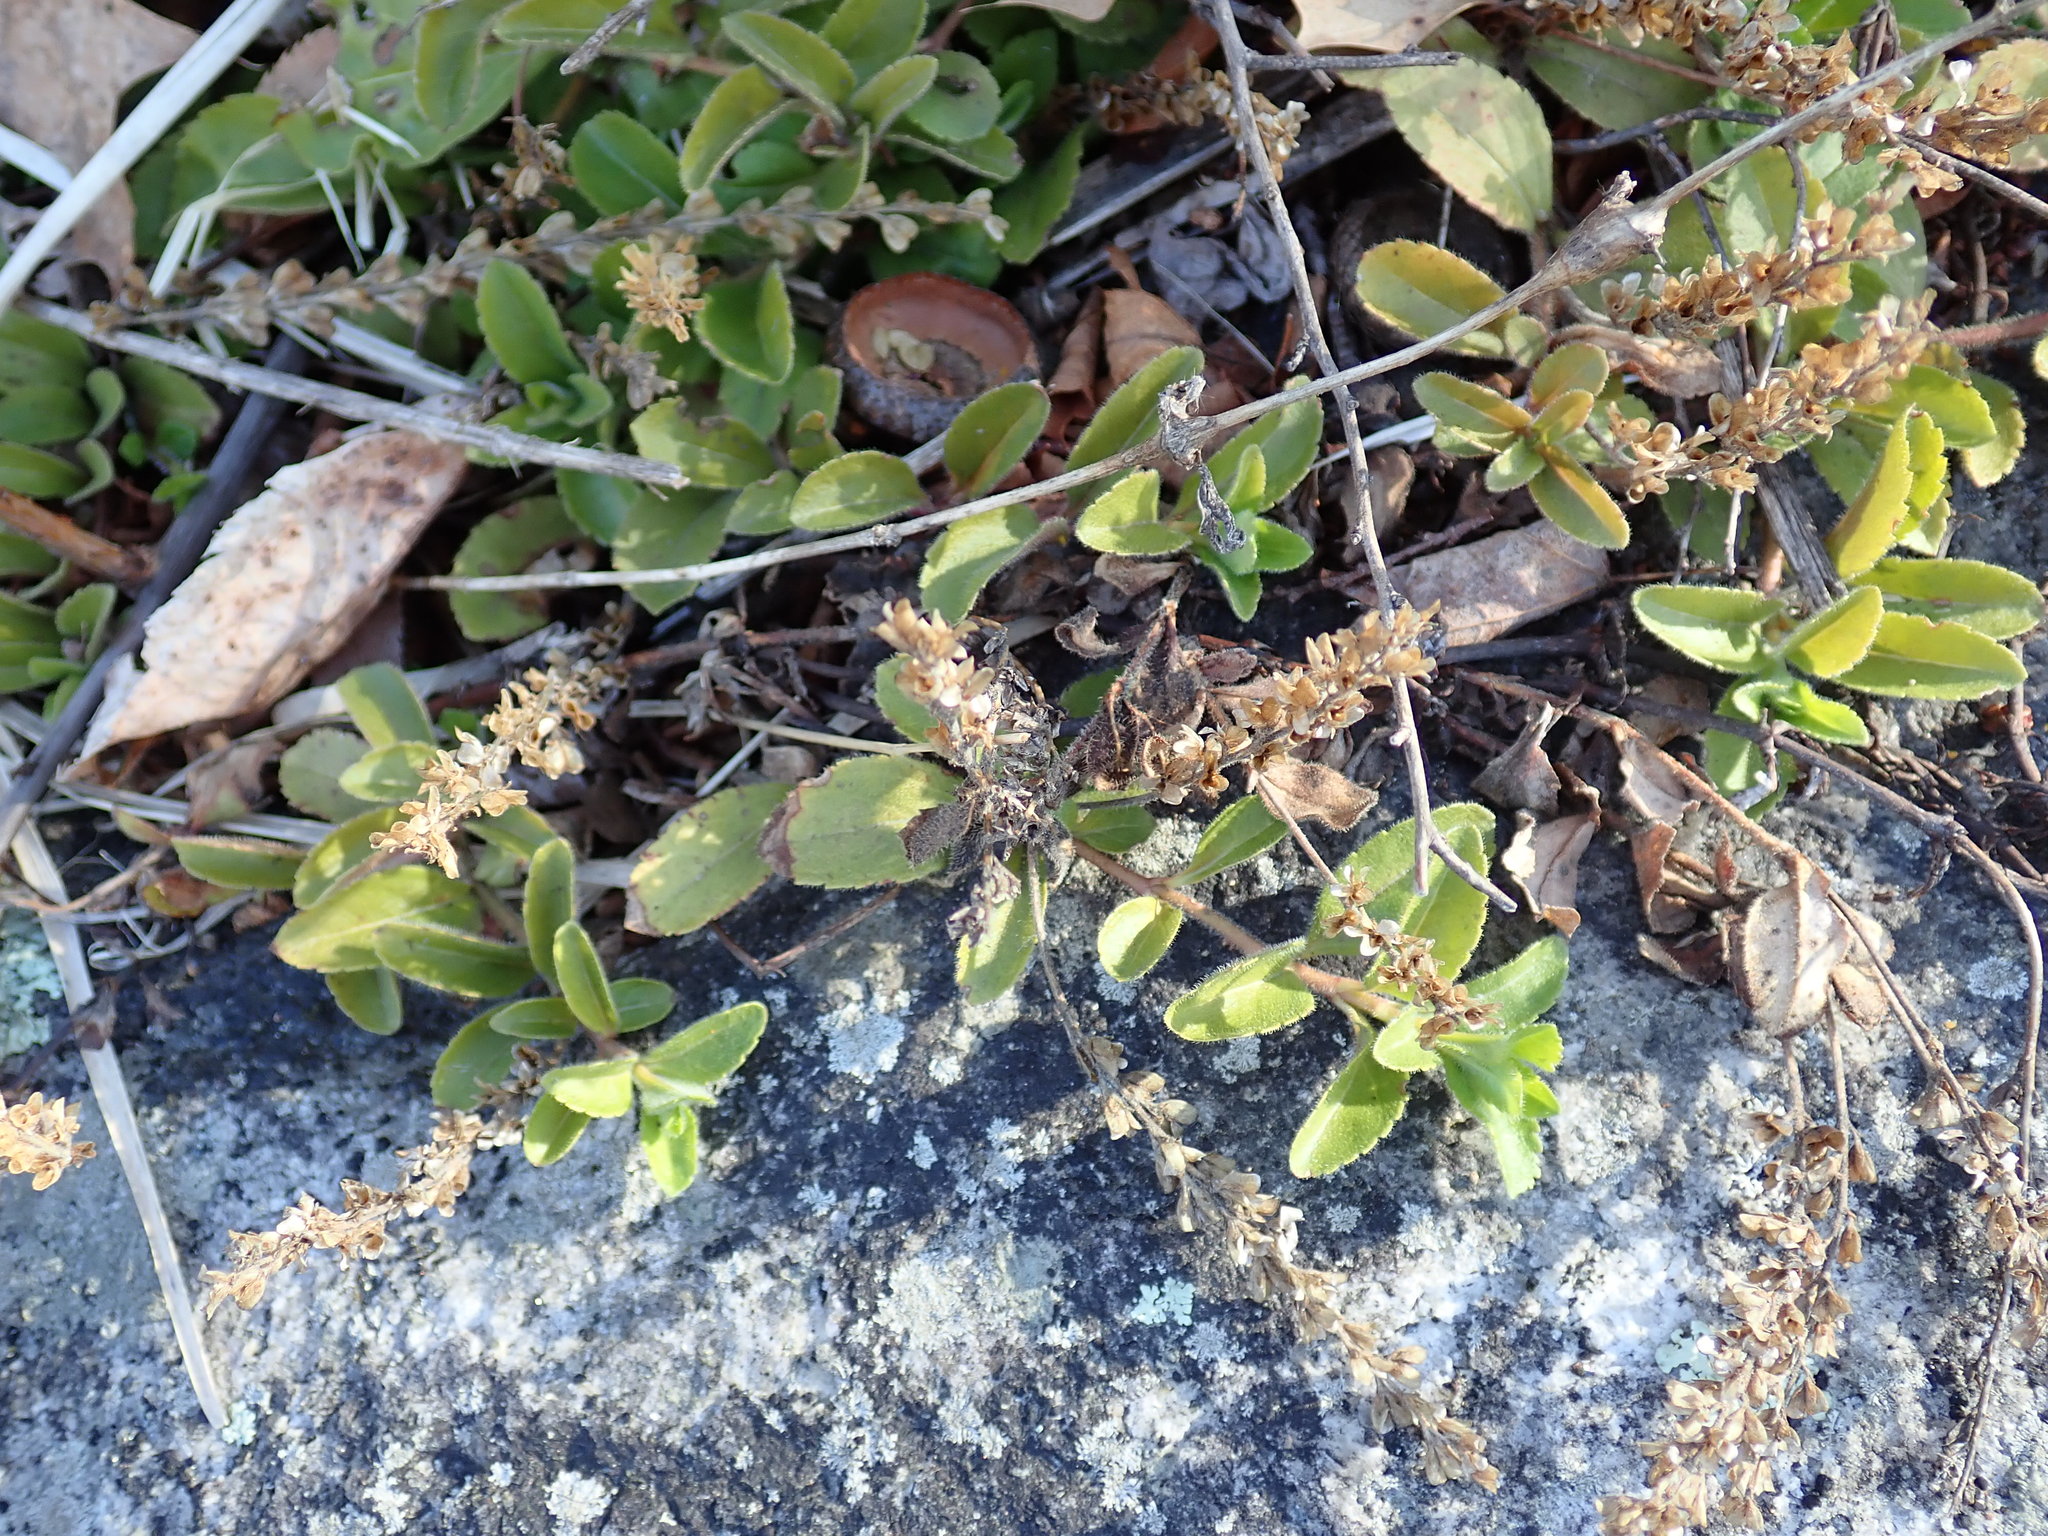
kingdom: Plantae
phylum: Tracheophyta
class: Magnoliopsida
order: Lamiales
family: Plantaginaceae
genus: Veronica
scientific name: Veronica officinalis
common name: Common speedwell
